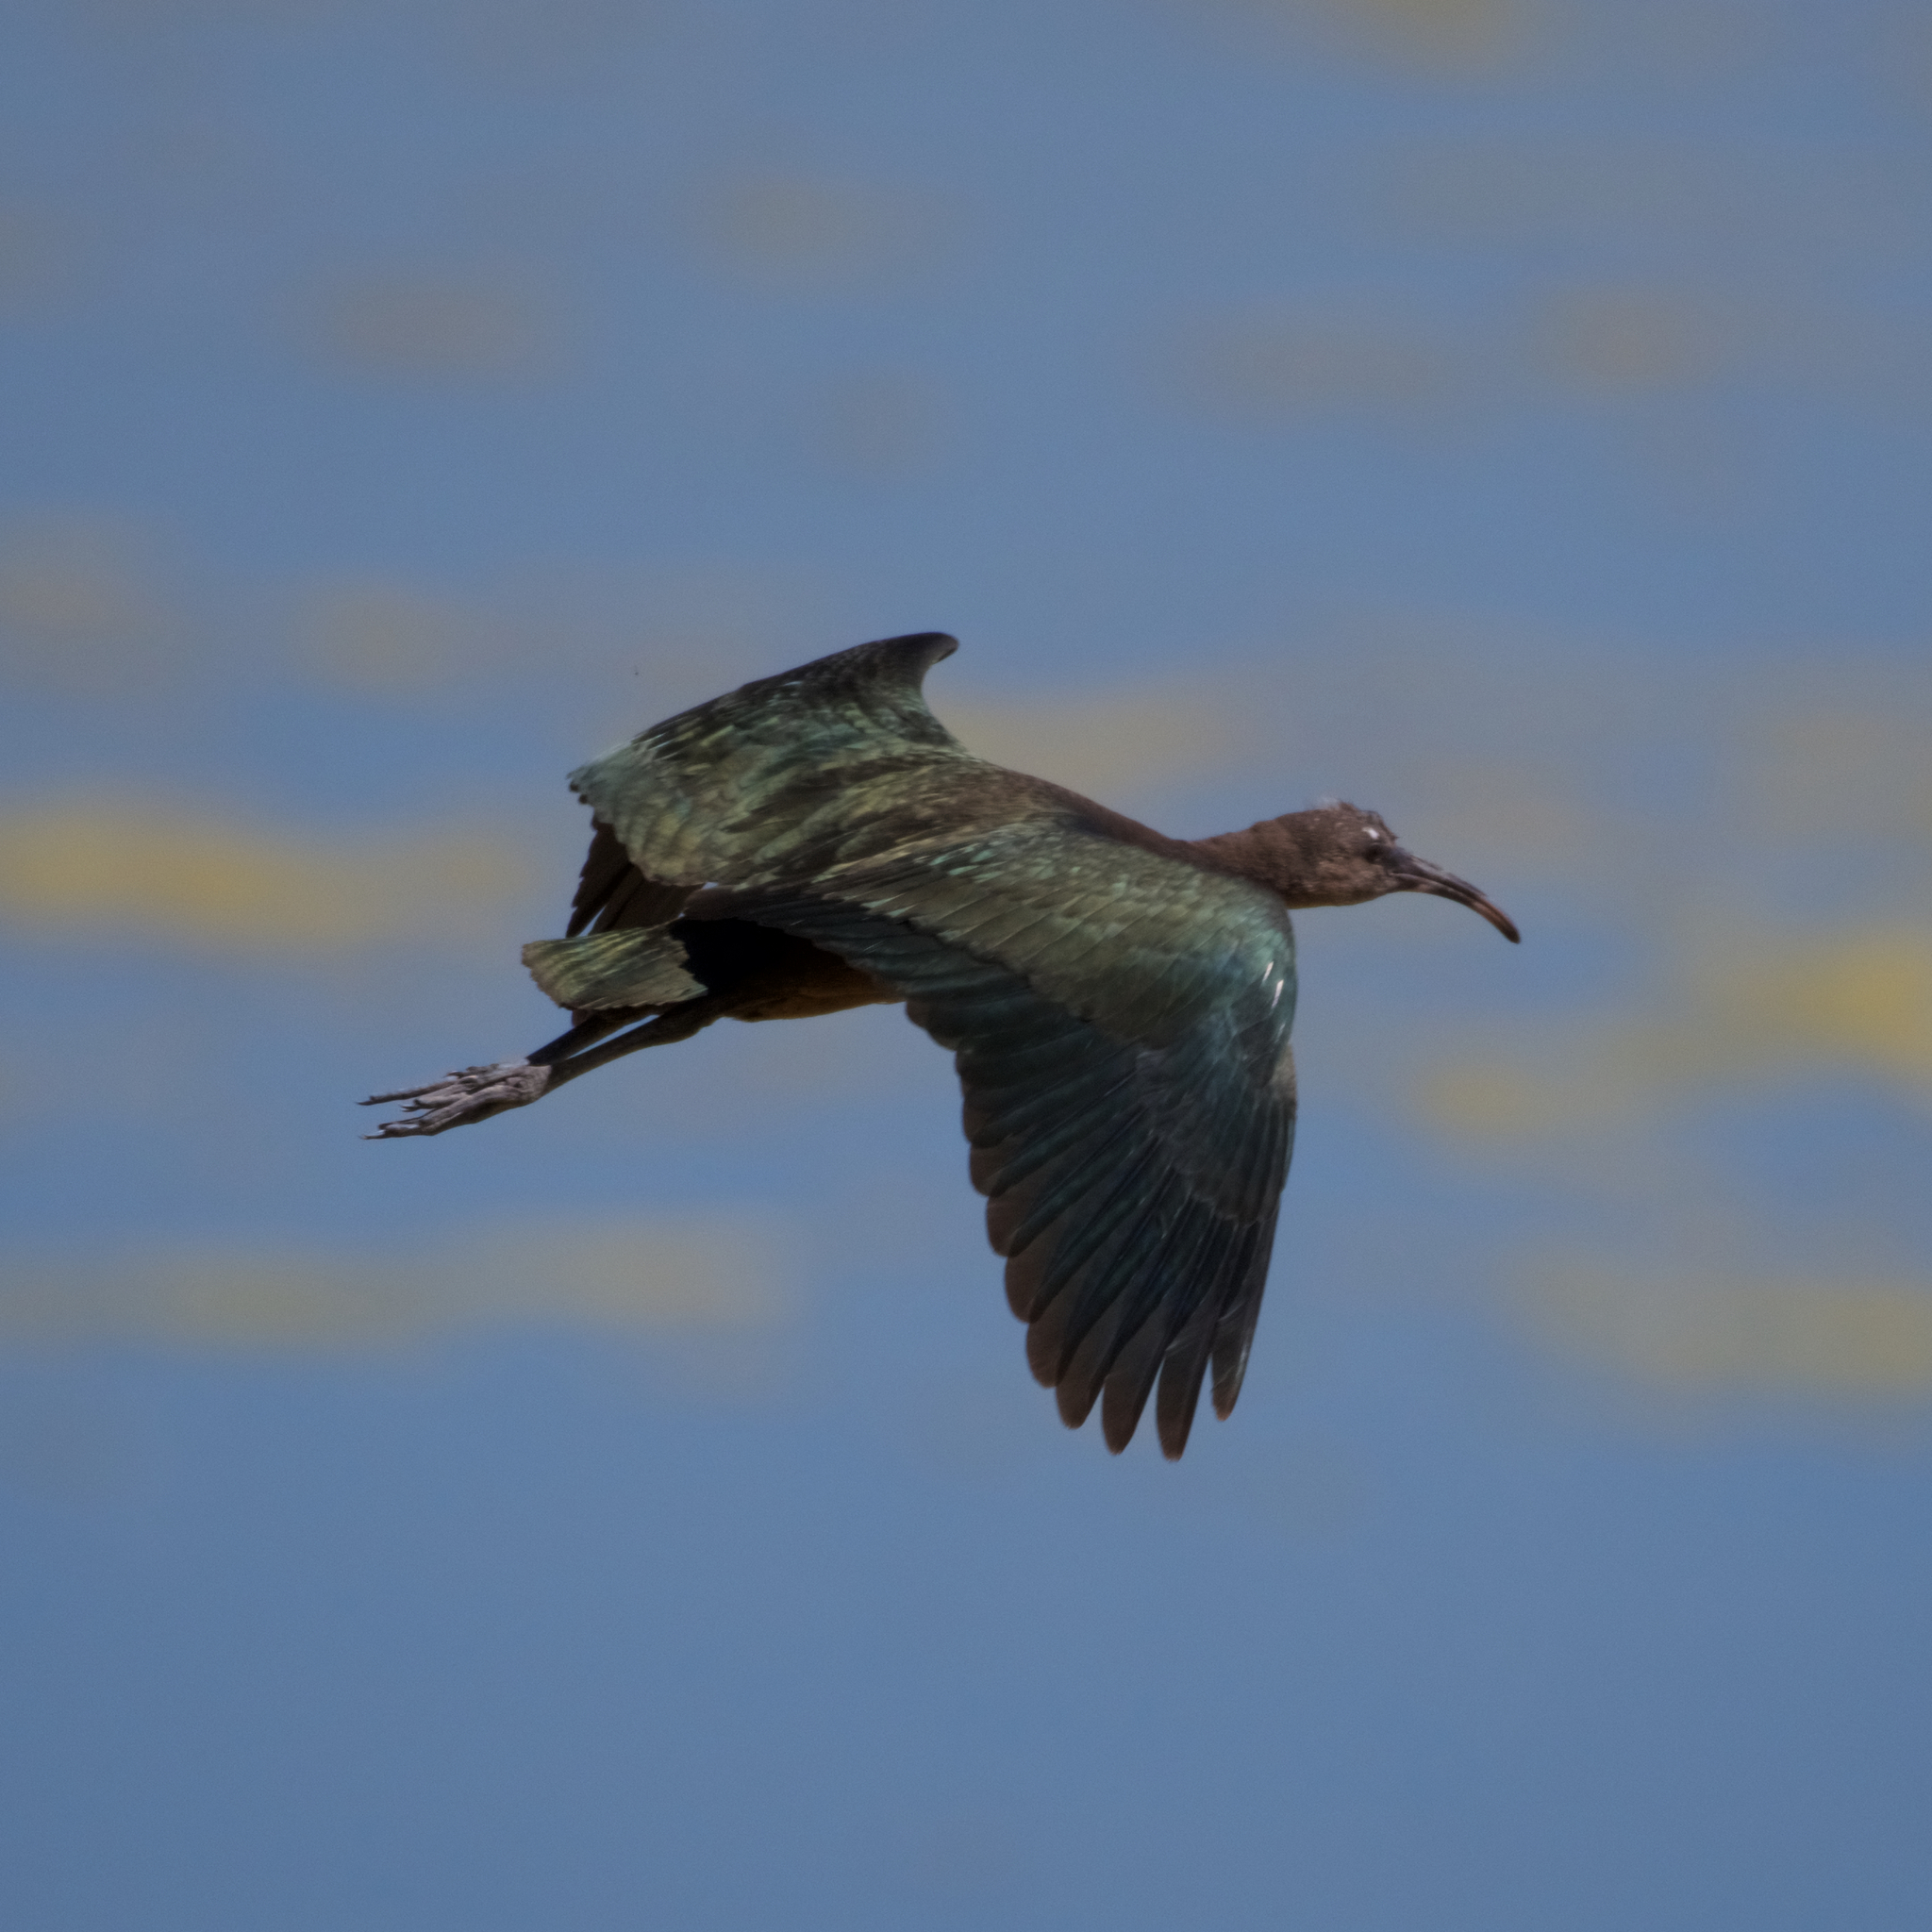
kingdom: Animalia
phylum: Chordata
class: Aves
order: Pelecaniformes
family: Threskiornithidae
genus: Plegadis
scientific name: Plegadis chihi
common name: White-faced ibis
